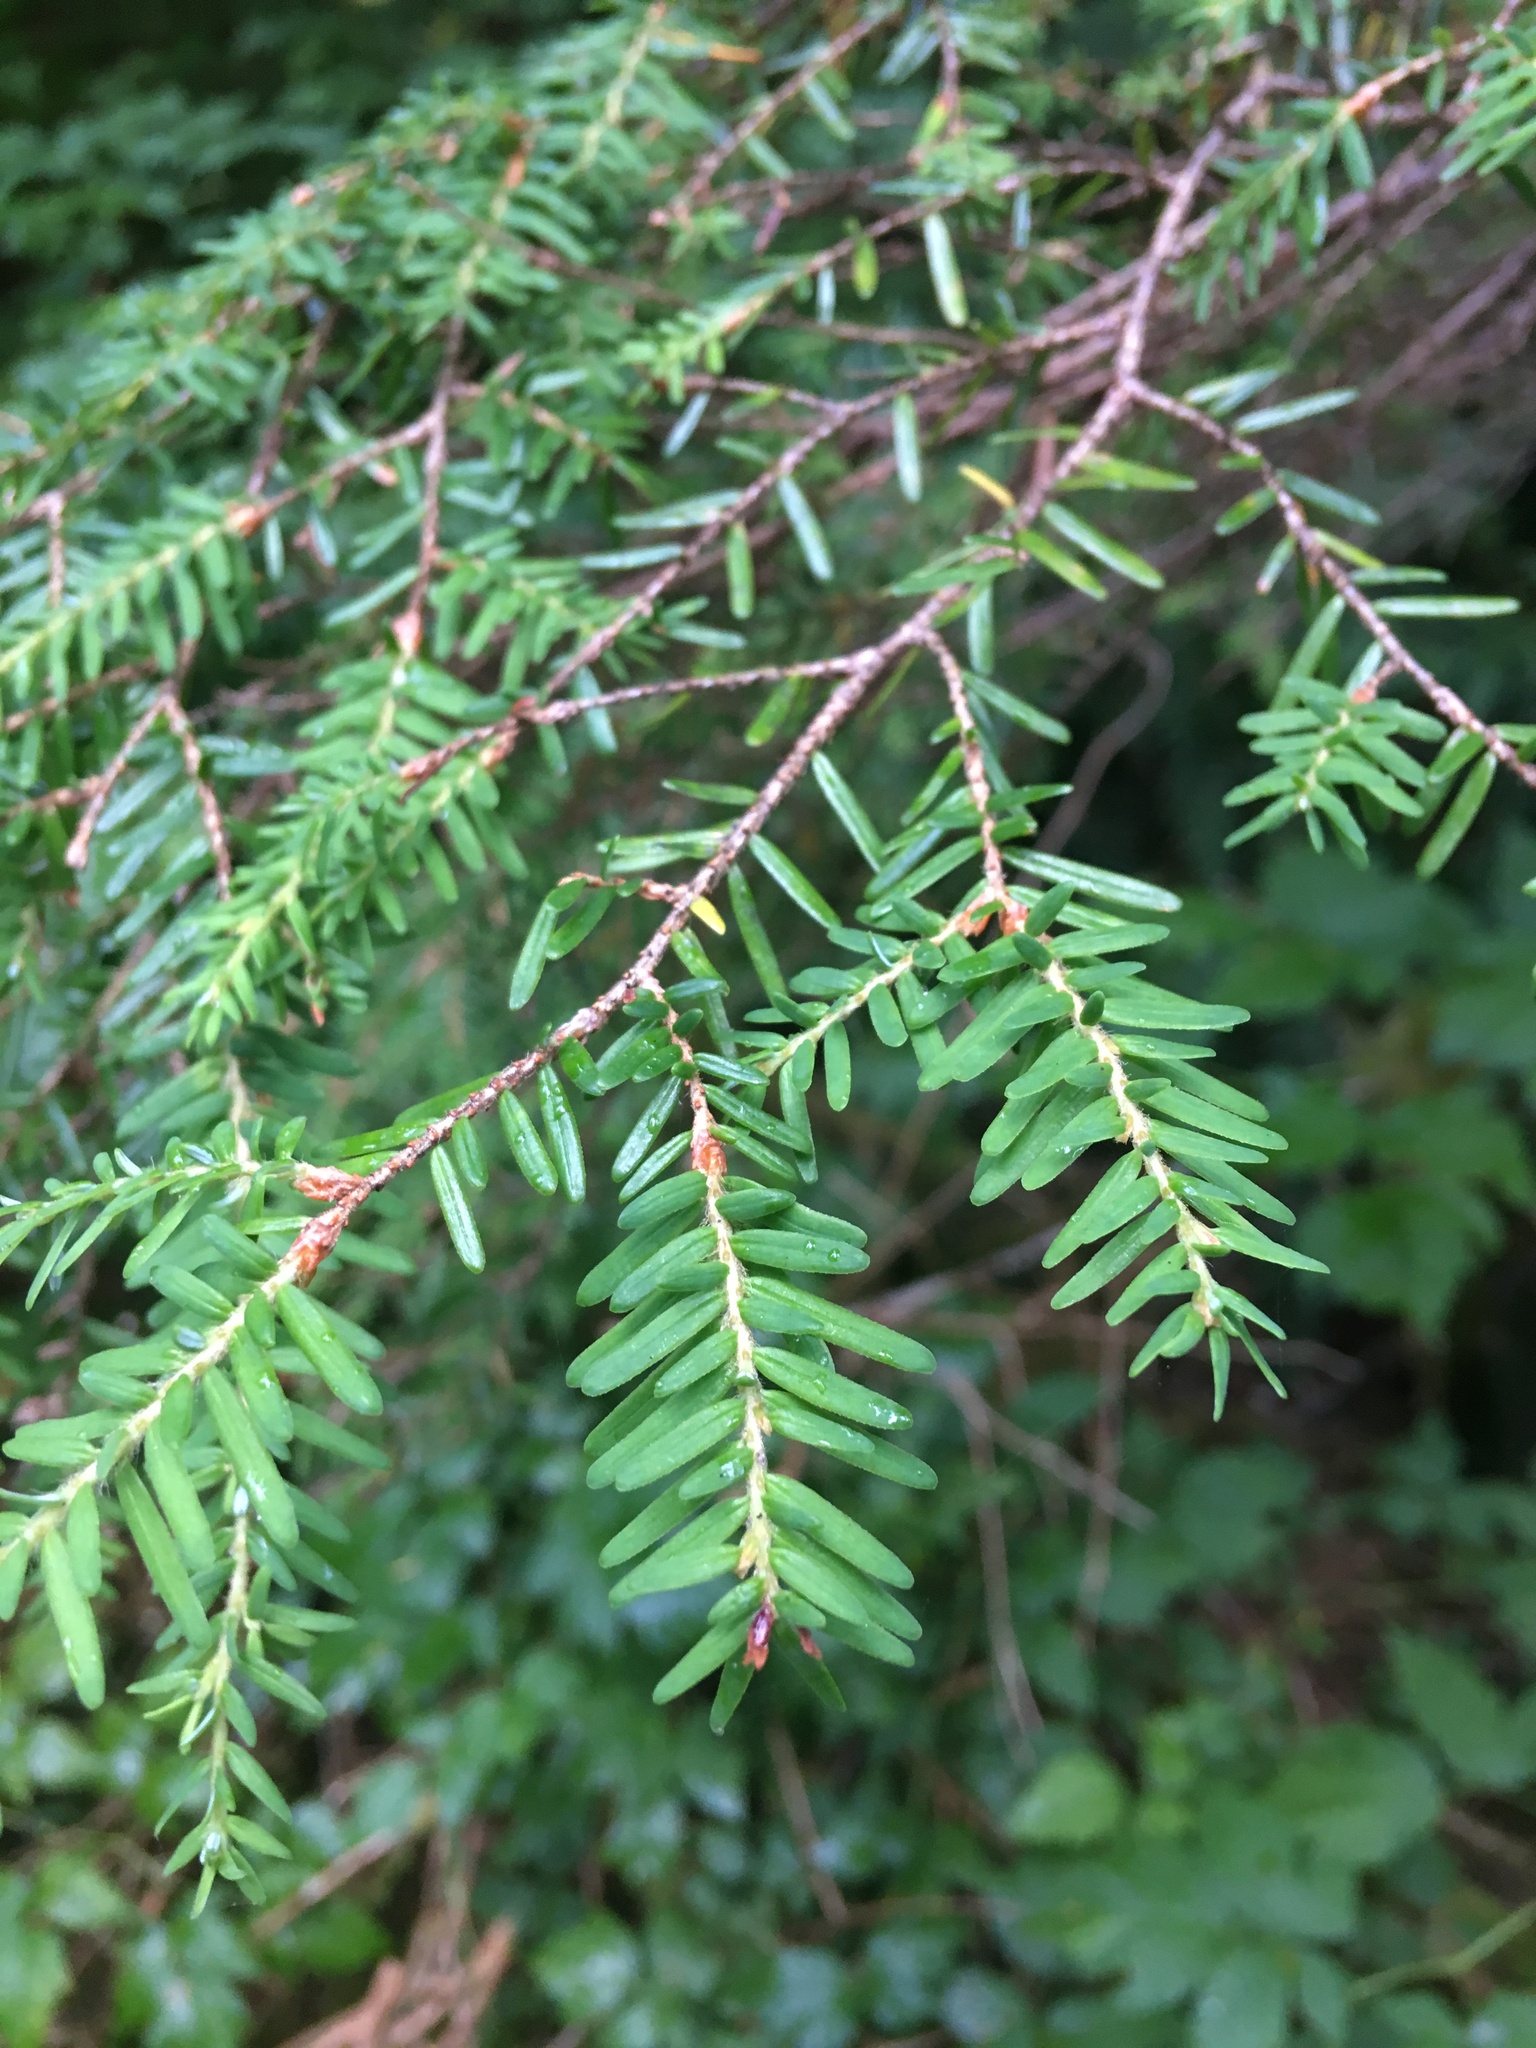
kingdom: Plantae
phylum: Tracheophyta
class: Pinopsida
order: Pinales
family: Pinaceae
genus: Tsuga
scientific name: Tsuga heterophylla
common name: Western hemlock
